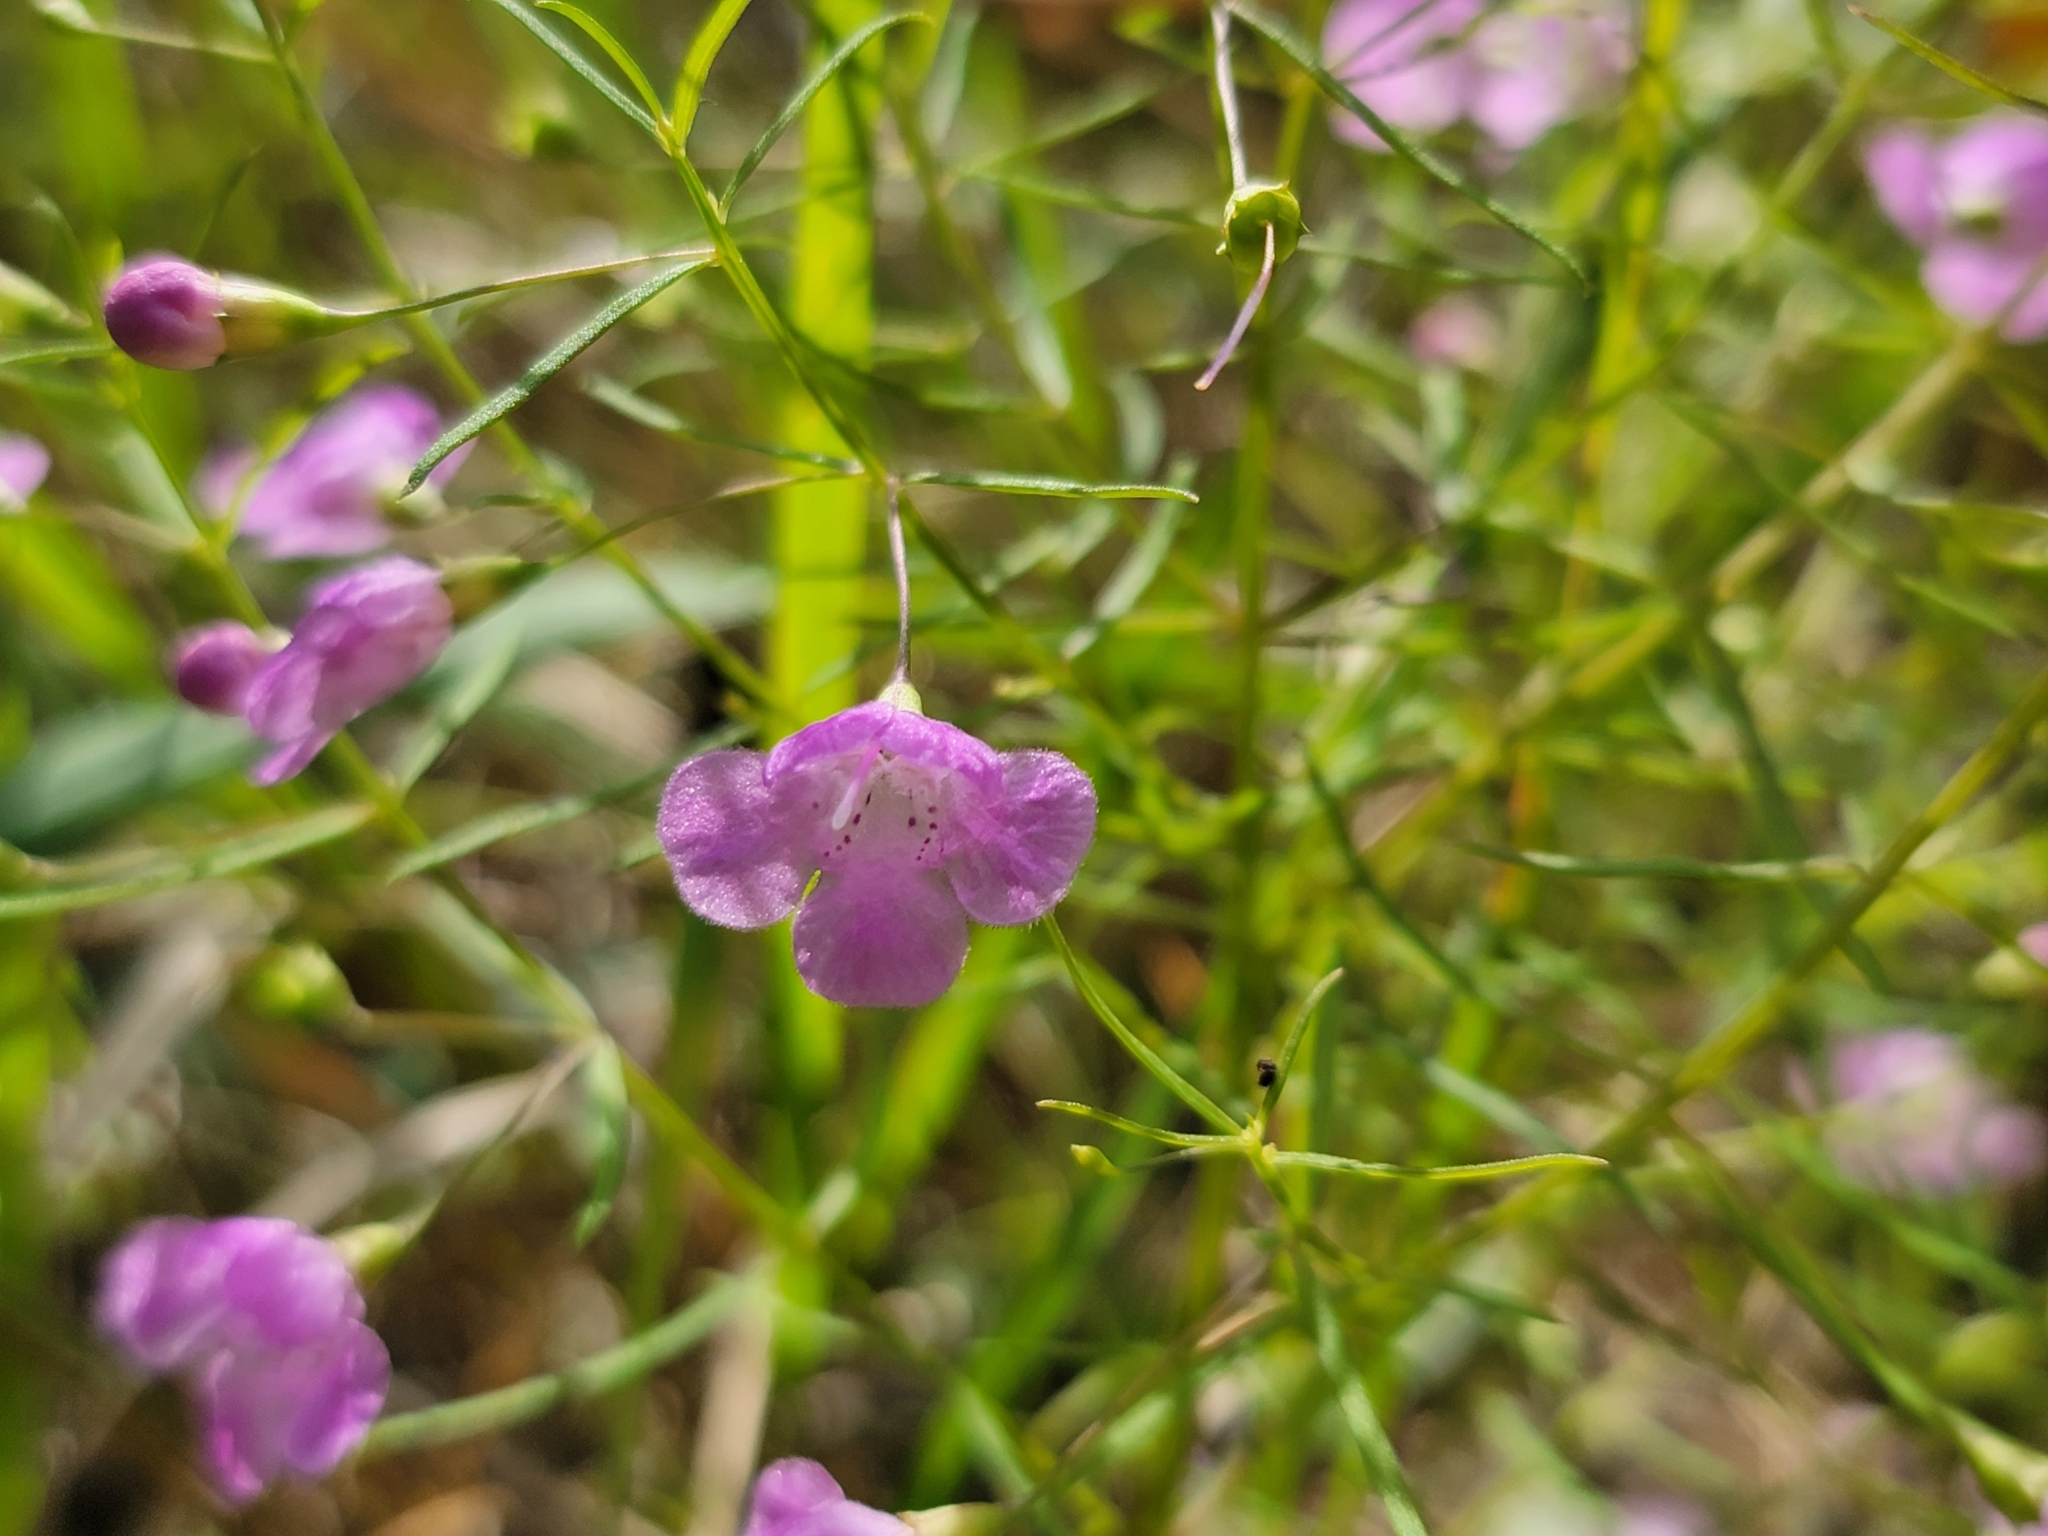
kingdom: Plantae
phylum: Tracheophyta
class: Magnoliopsida
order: Lamiales
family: Orobanchaceae
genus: Agalinis
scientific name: Agalinis tenuifolia
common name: Slender agalinis
